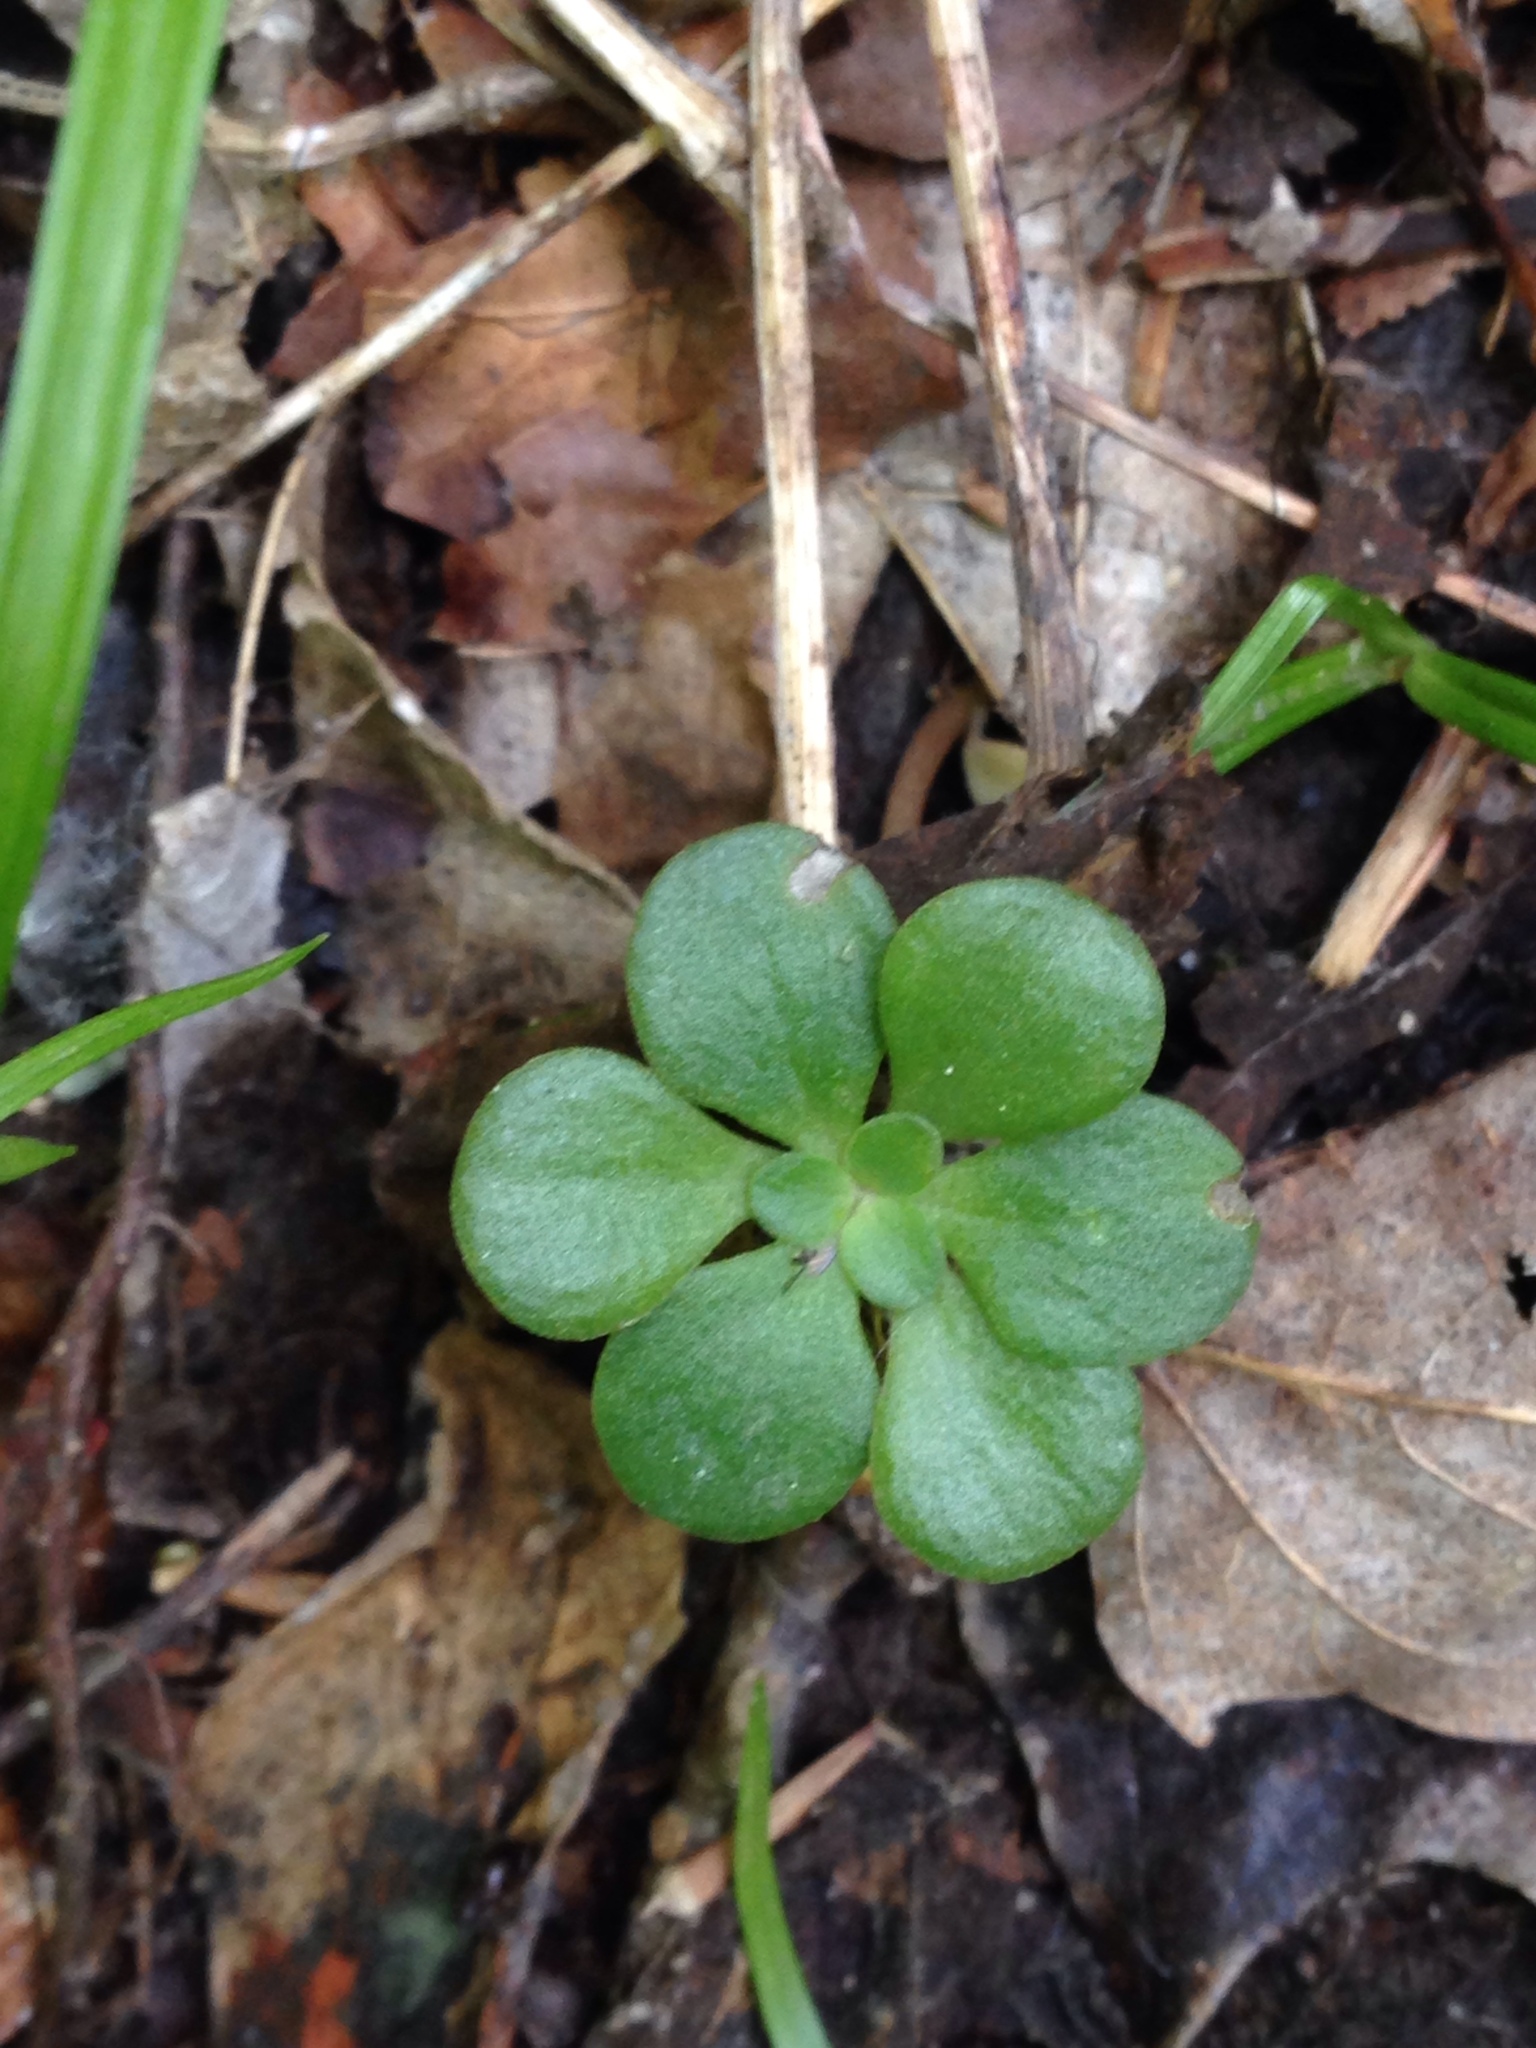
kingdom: Plantae
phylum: Tracheophyta
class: Magnoliopsida
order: Saxifragales
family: Crassulaceae
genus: Sedum
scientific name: Sedum ternatum
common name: Wild stonecrop
